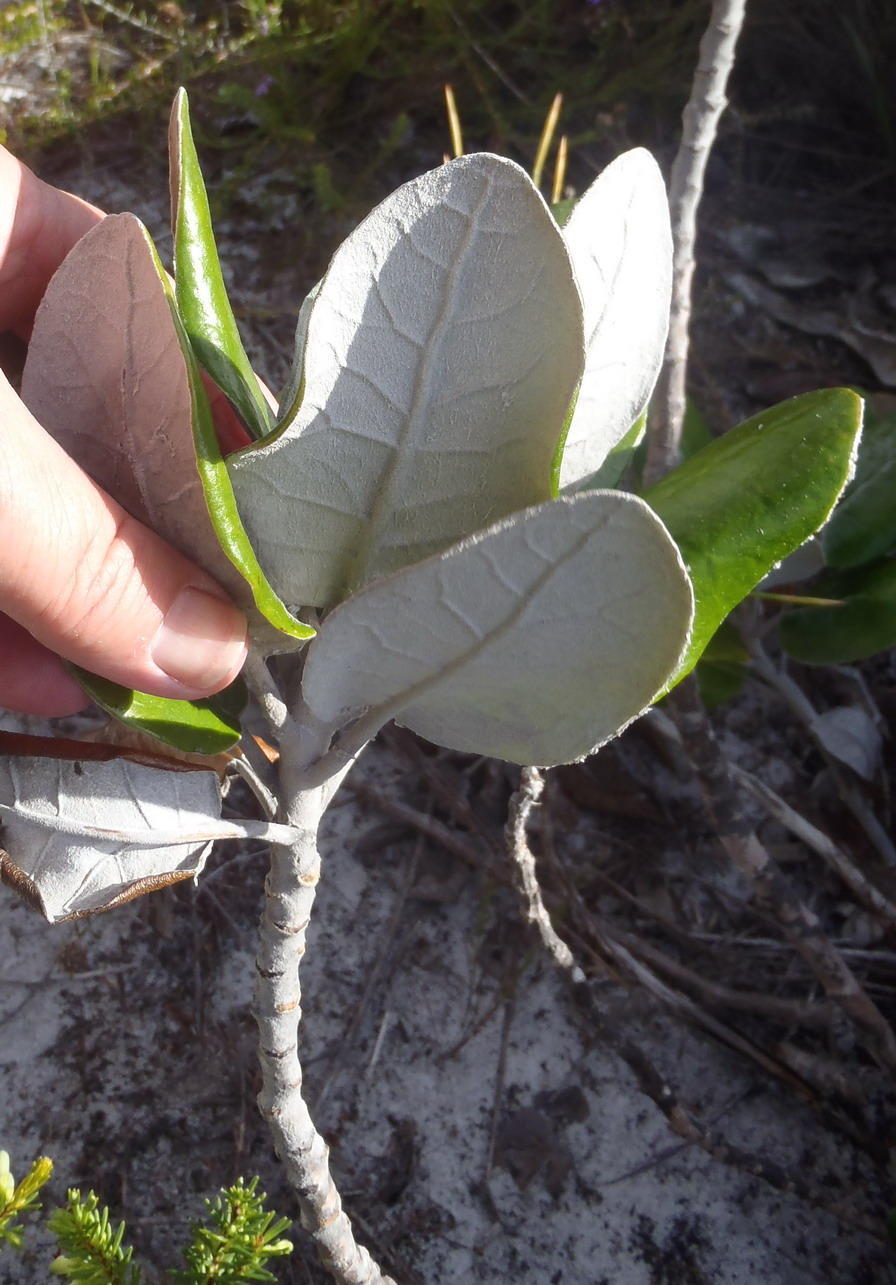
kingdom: Plantae
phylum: Tracheophyta
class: Magnoliopsida
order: Asterales
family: Asteraceae
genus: Capelio
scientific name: Capelio tabularis
